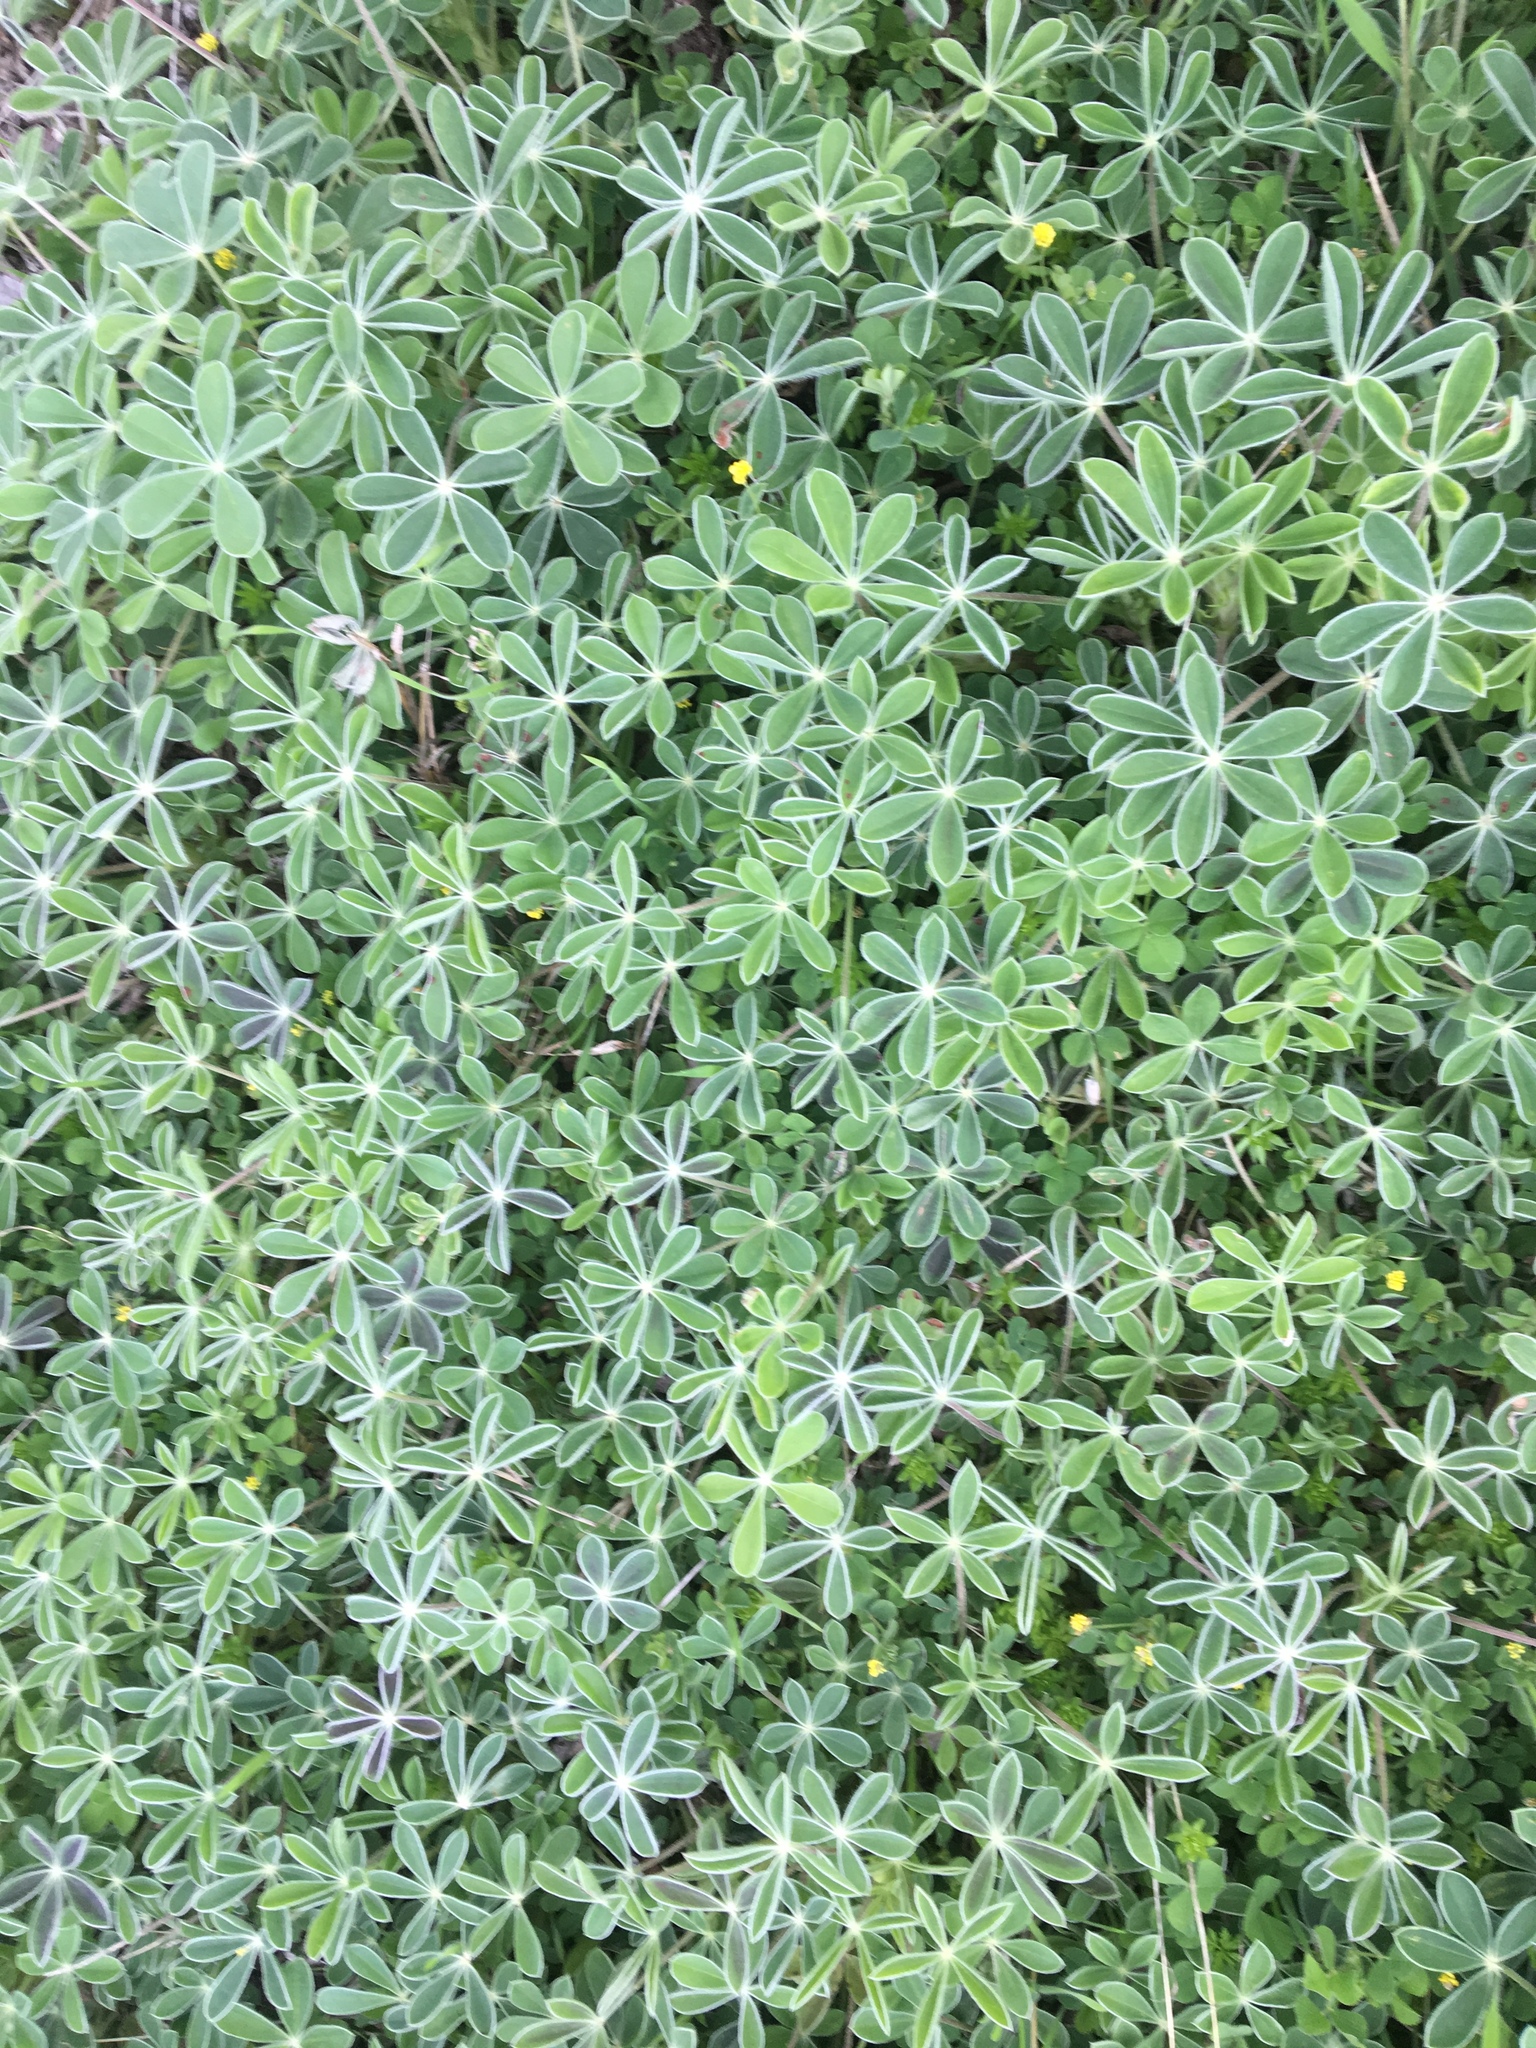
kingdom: Plantae
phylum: Tracheophyta
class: Magnoliopsida
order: Fabales
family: Fabaceae
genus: Lupinus
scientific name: Lupinus texensis
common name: Texas bluebonnet
